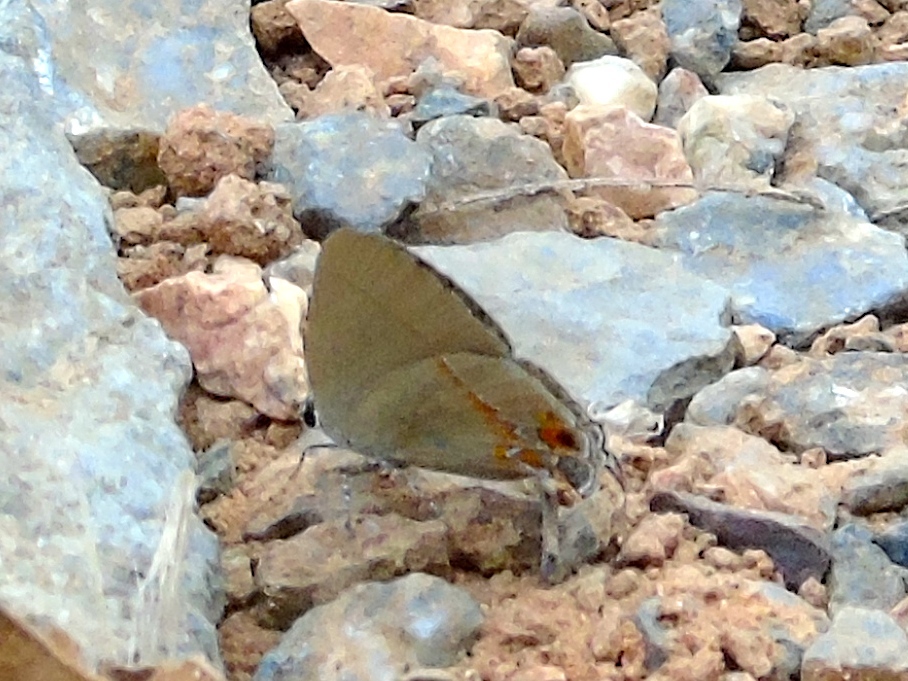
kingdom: Animalia
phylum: Arthropoda
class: Insecta
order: Lepidoptera
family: Lycaenidae
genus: Calycopis
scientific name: Calycopis isobeon
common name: Dusky-blue groundstreak
